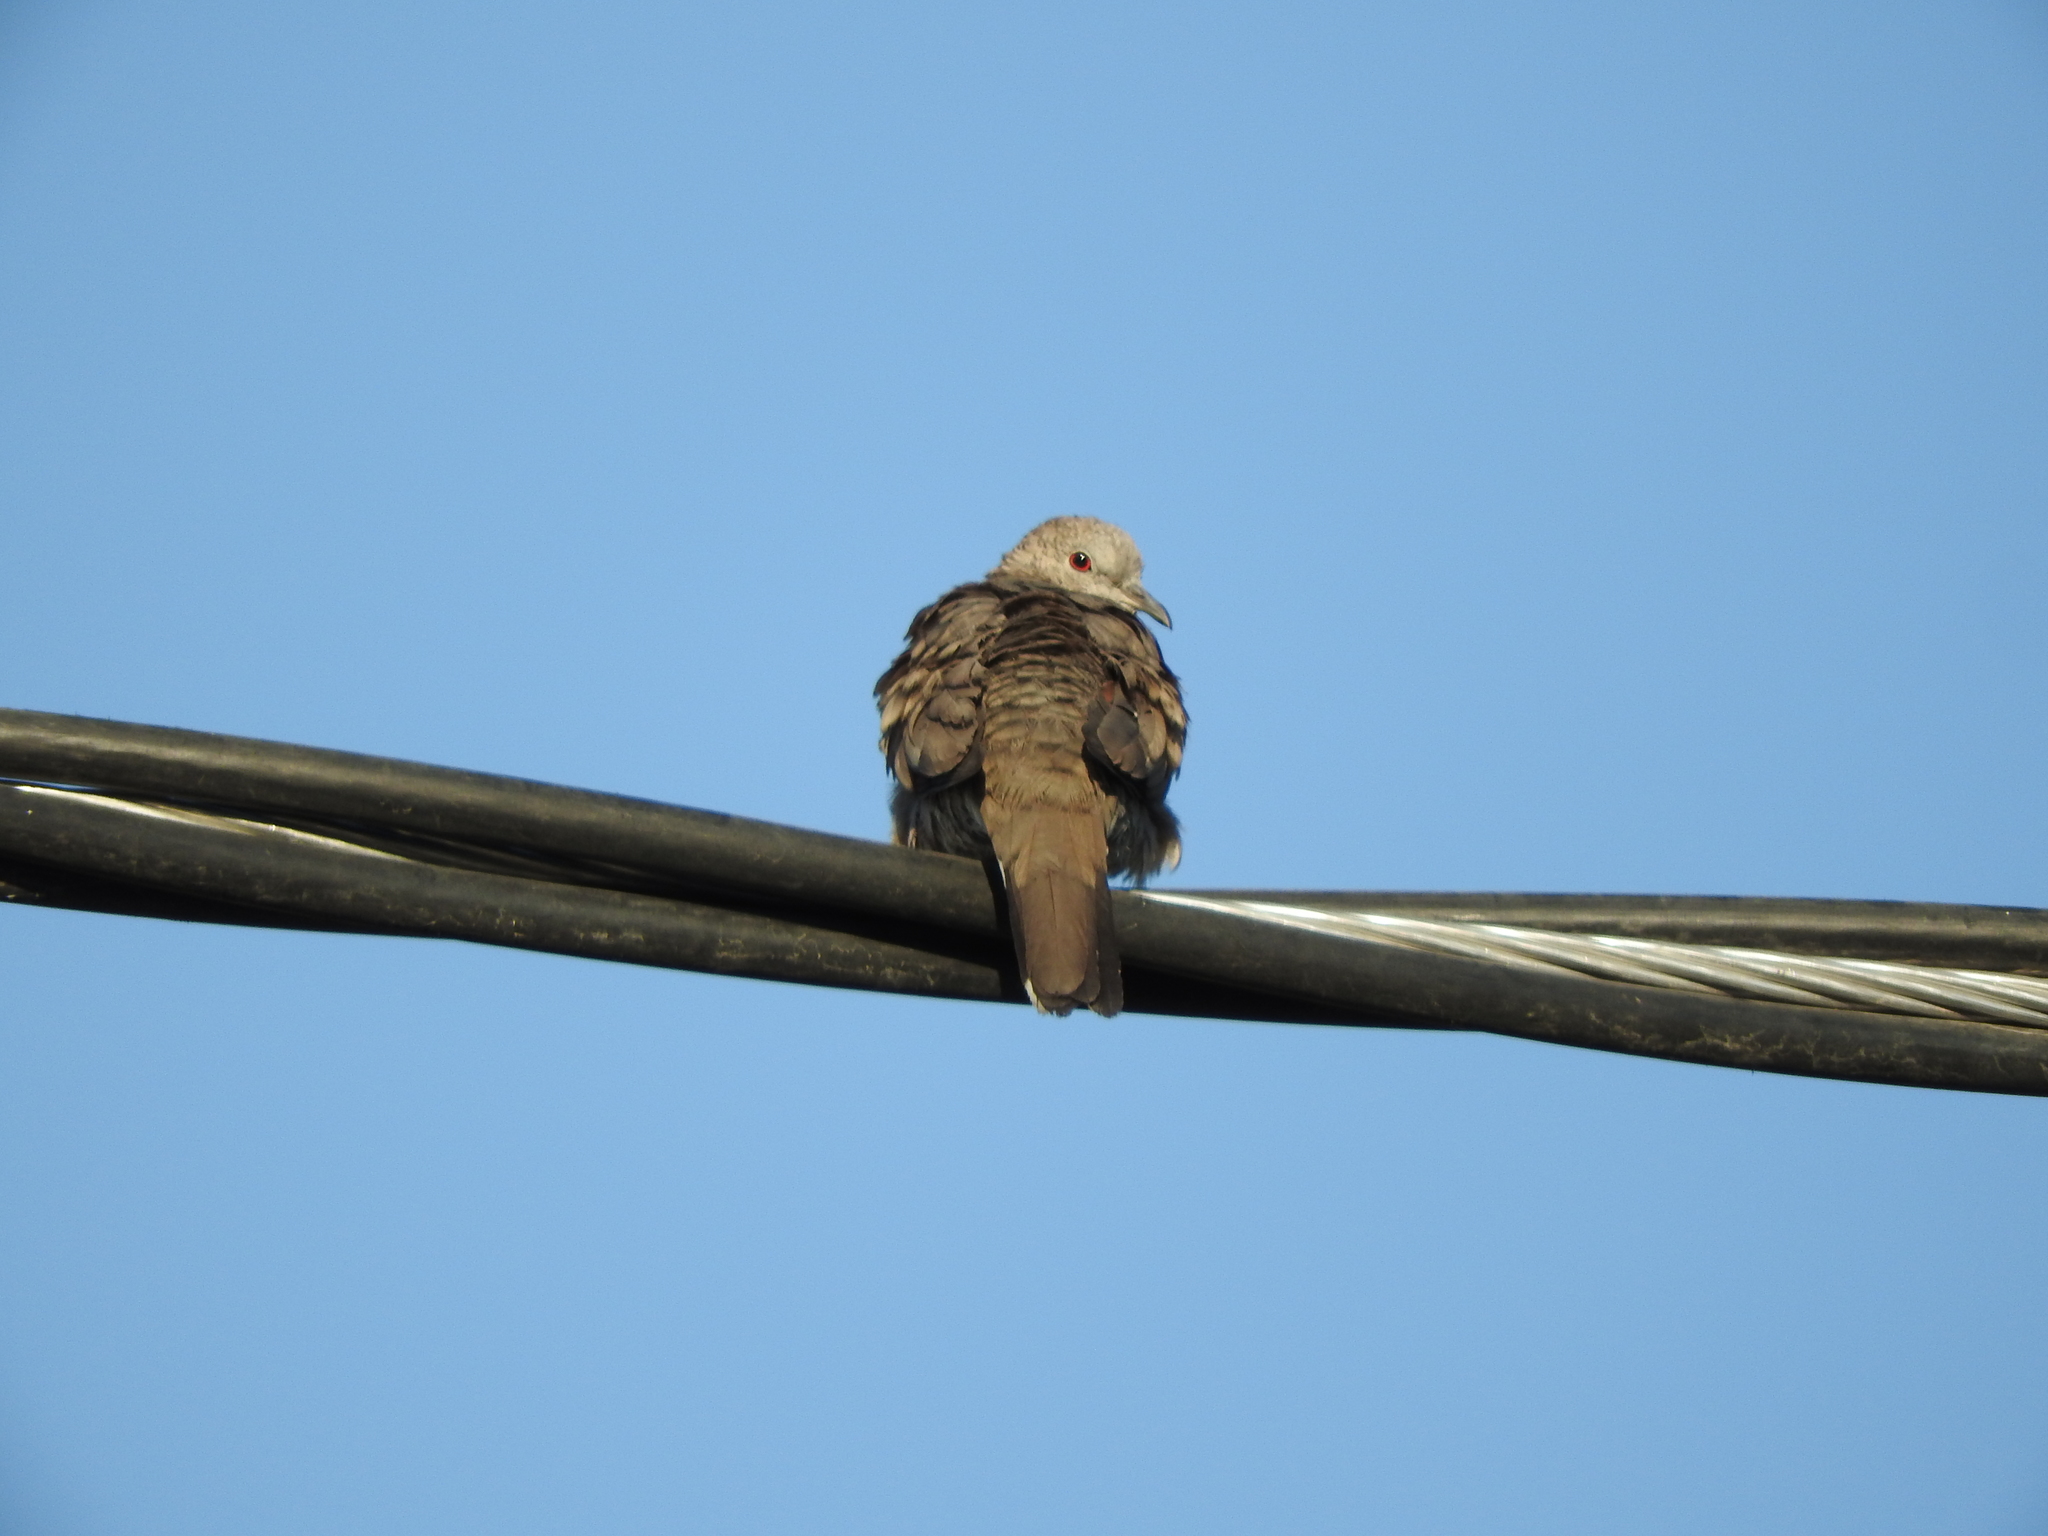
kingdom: Animalia
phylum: Chordata
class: Aves
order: Columbiformes
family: Columbidae
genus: Columbina
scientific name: Columbina inca
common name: Inca dove
